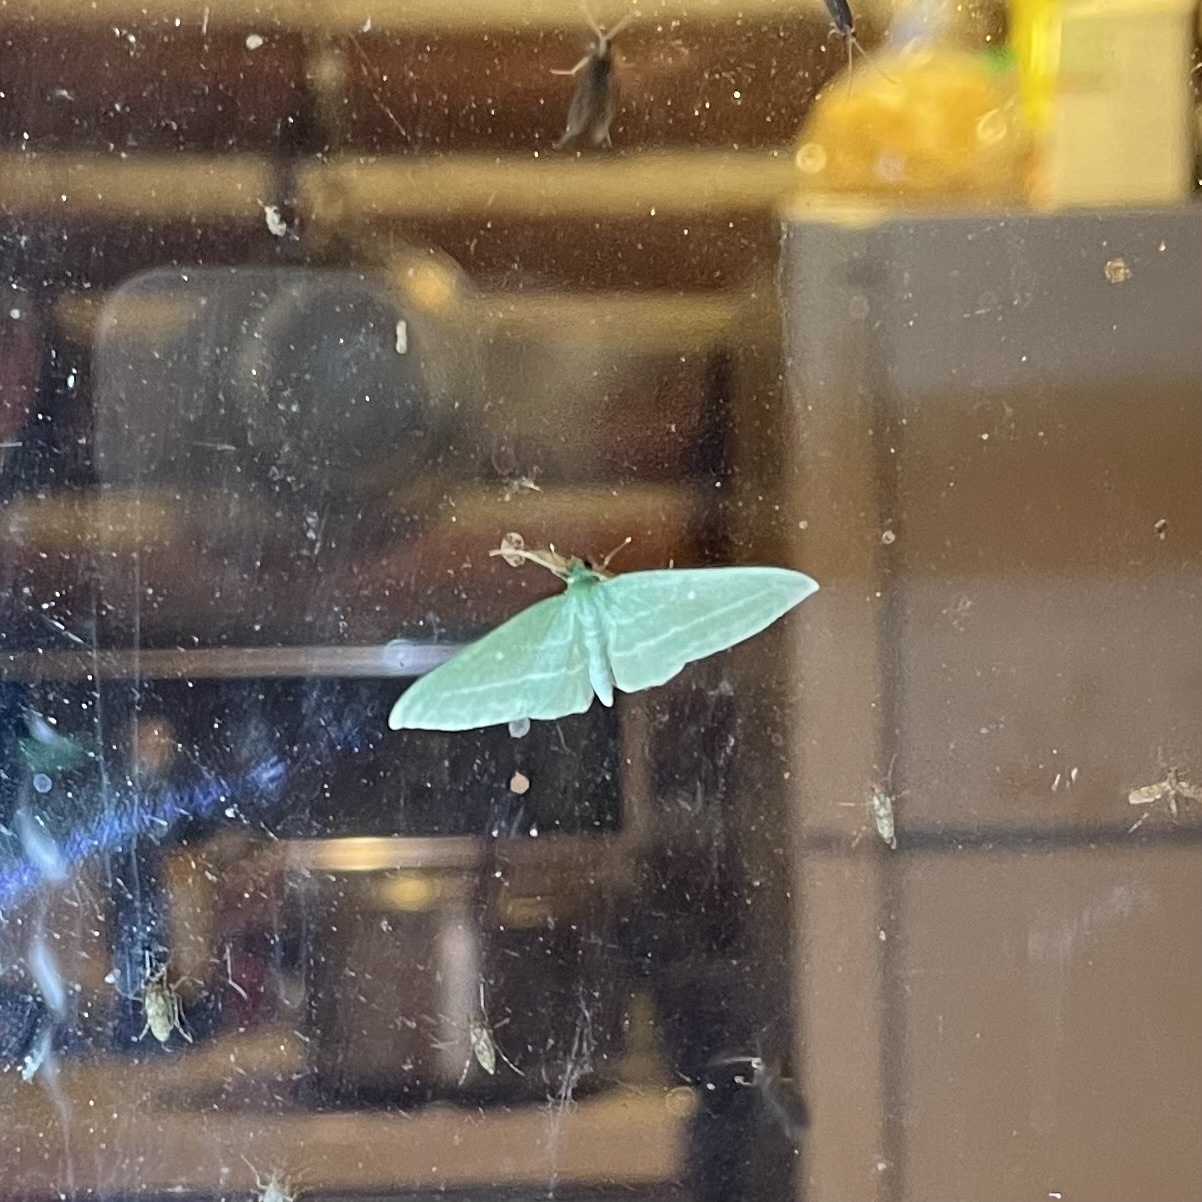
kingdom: Animalia
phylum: Arthropoda
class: Insecta
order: Lepidoptera
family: Geometridae
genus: Dyspteris
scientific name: Dyspteris abortivaria
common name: Bad-wing
